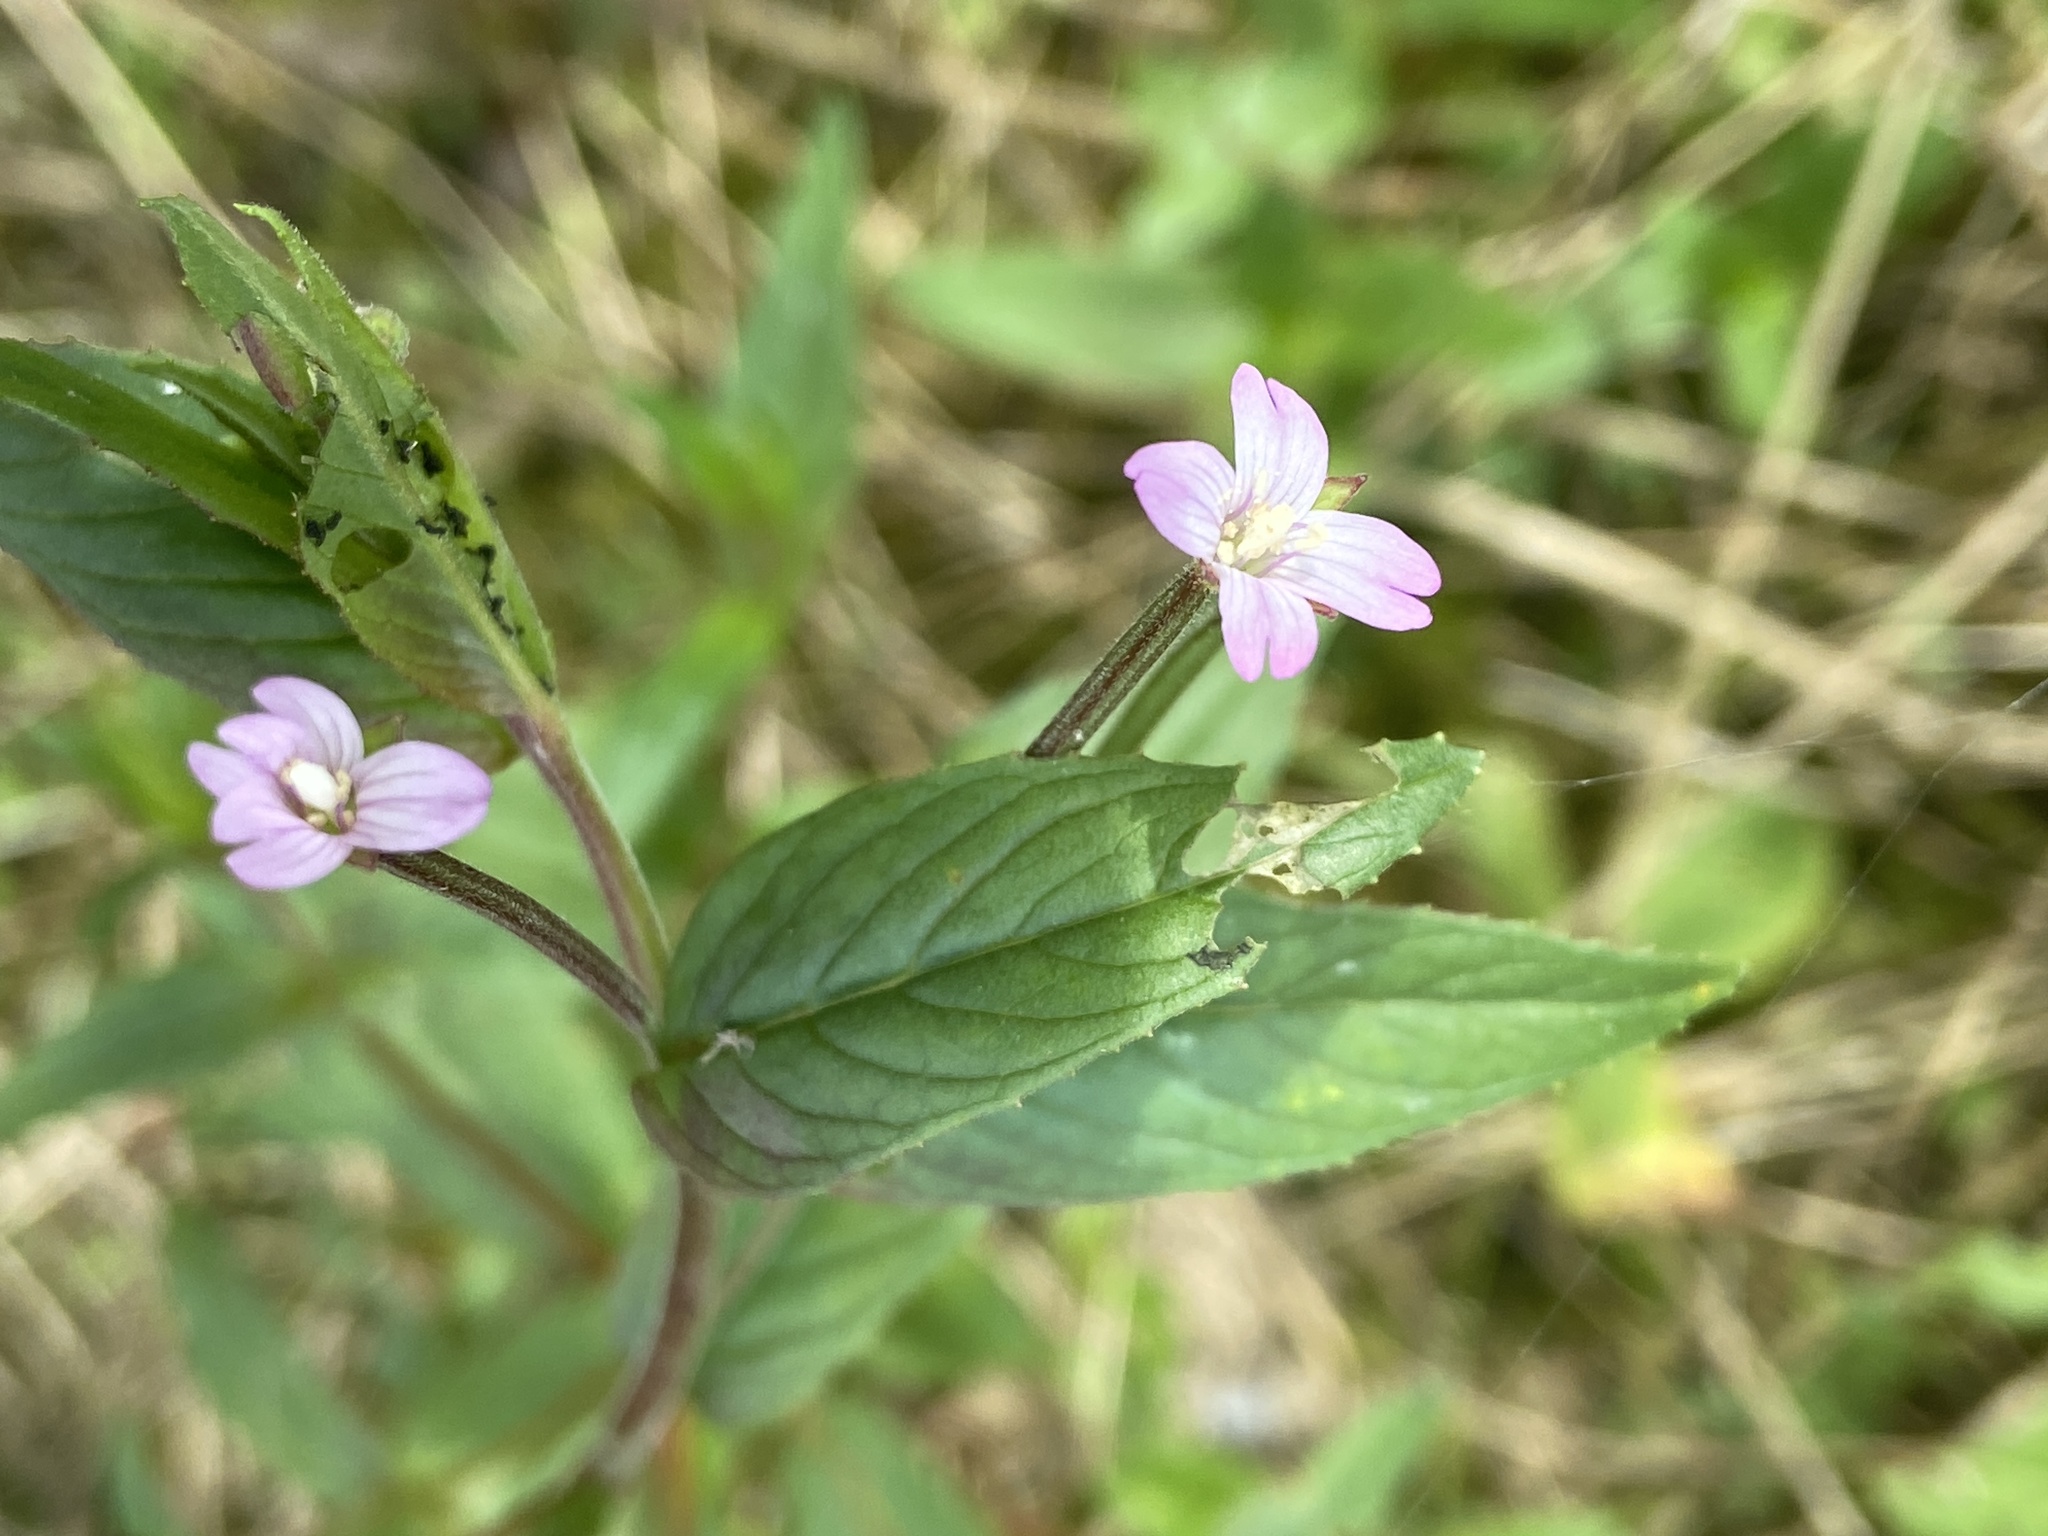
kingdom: Plantae
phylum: Tracheophyta
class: Magnoliopsida
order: Myrtales
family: Onagraceae
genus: Epilobium
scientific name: Epilobium ciliatum
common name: American willowherb
